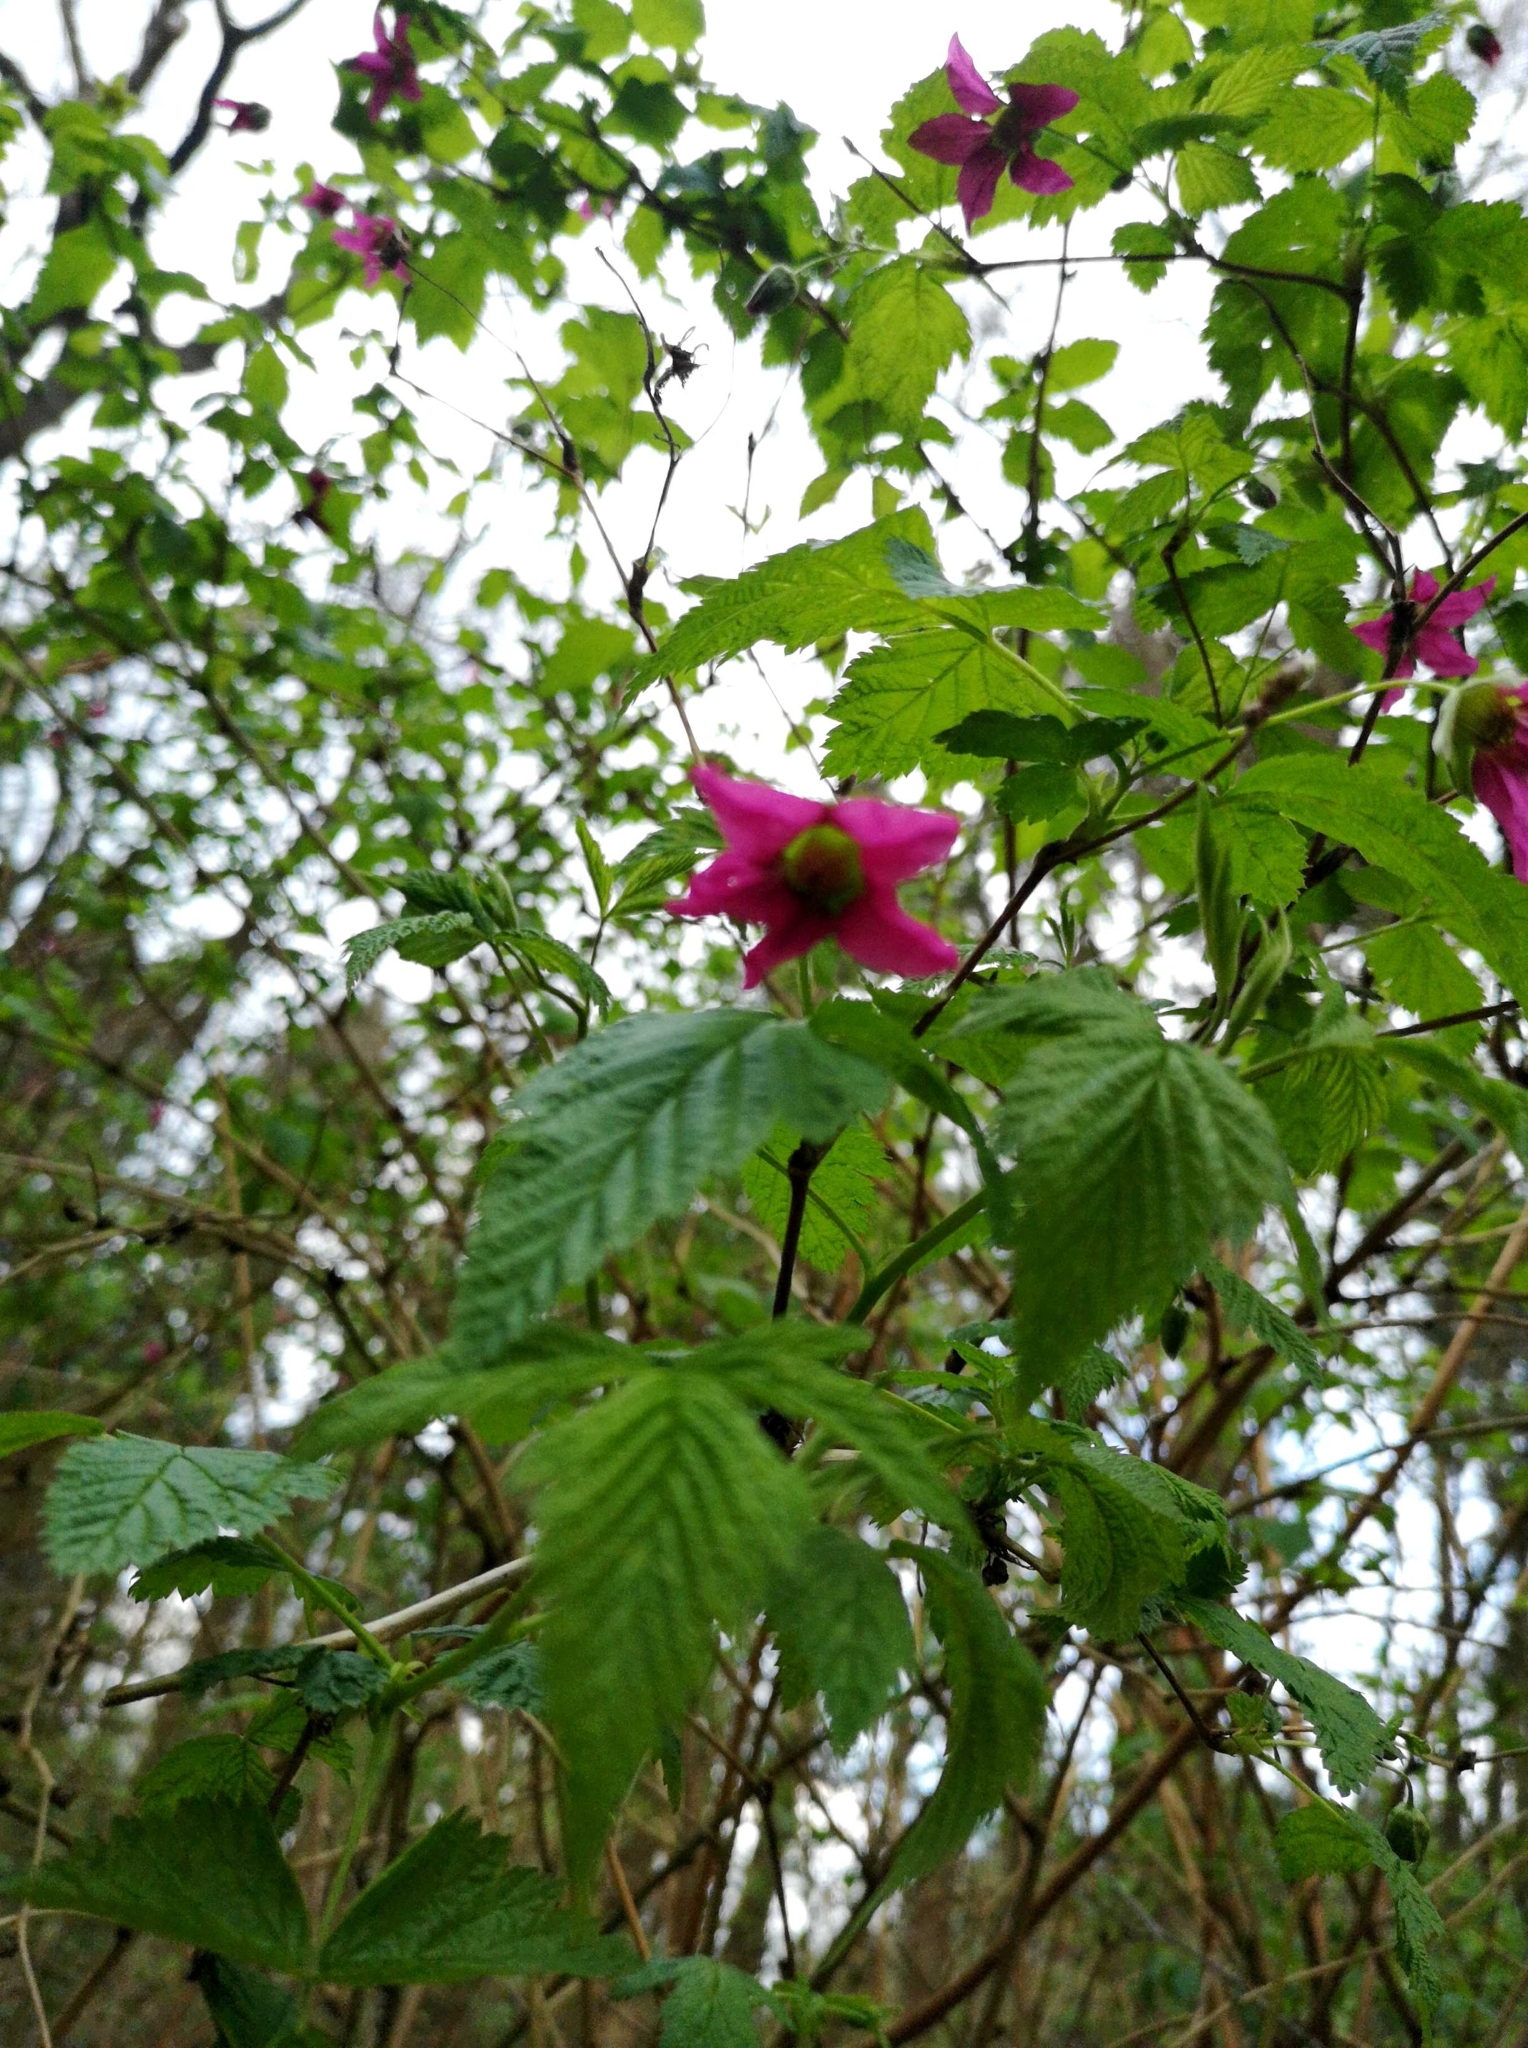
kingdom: Plantae
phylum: Tracheophyta
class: Magnoliopsida
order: Rosales
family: Rosaceae
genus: Rubus
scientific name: Rubus spectabilis
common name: Salmonberry
